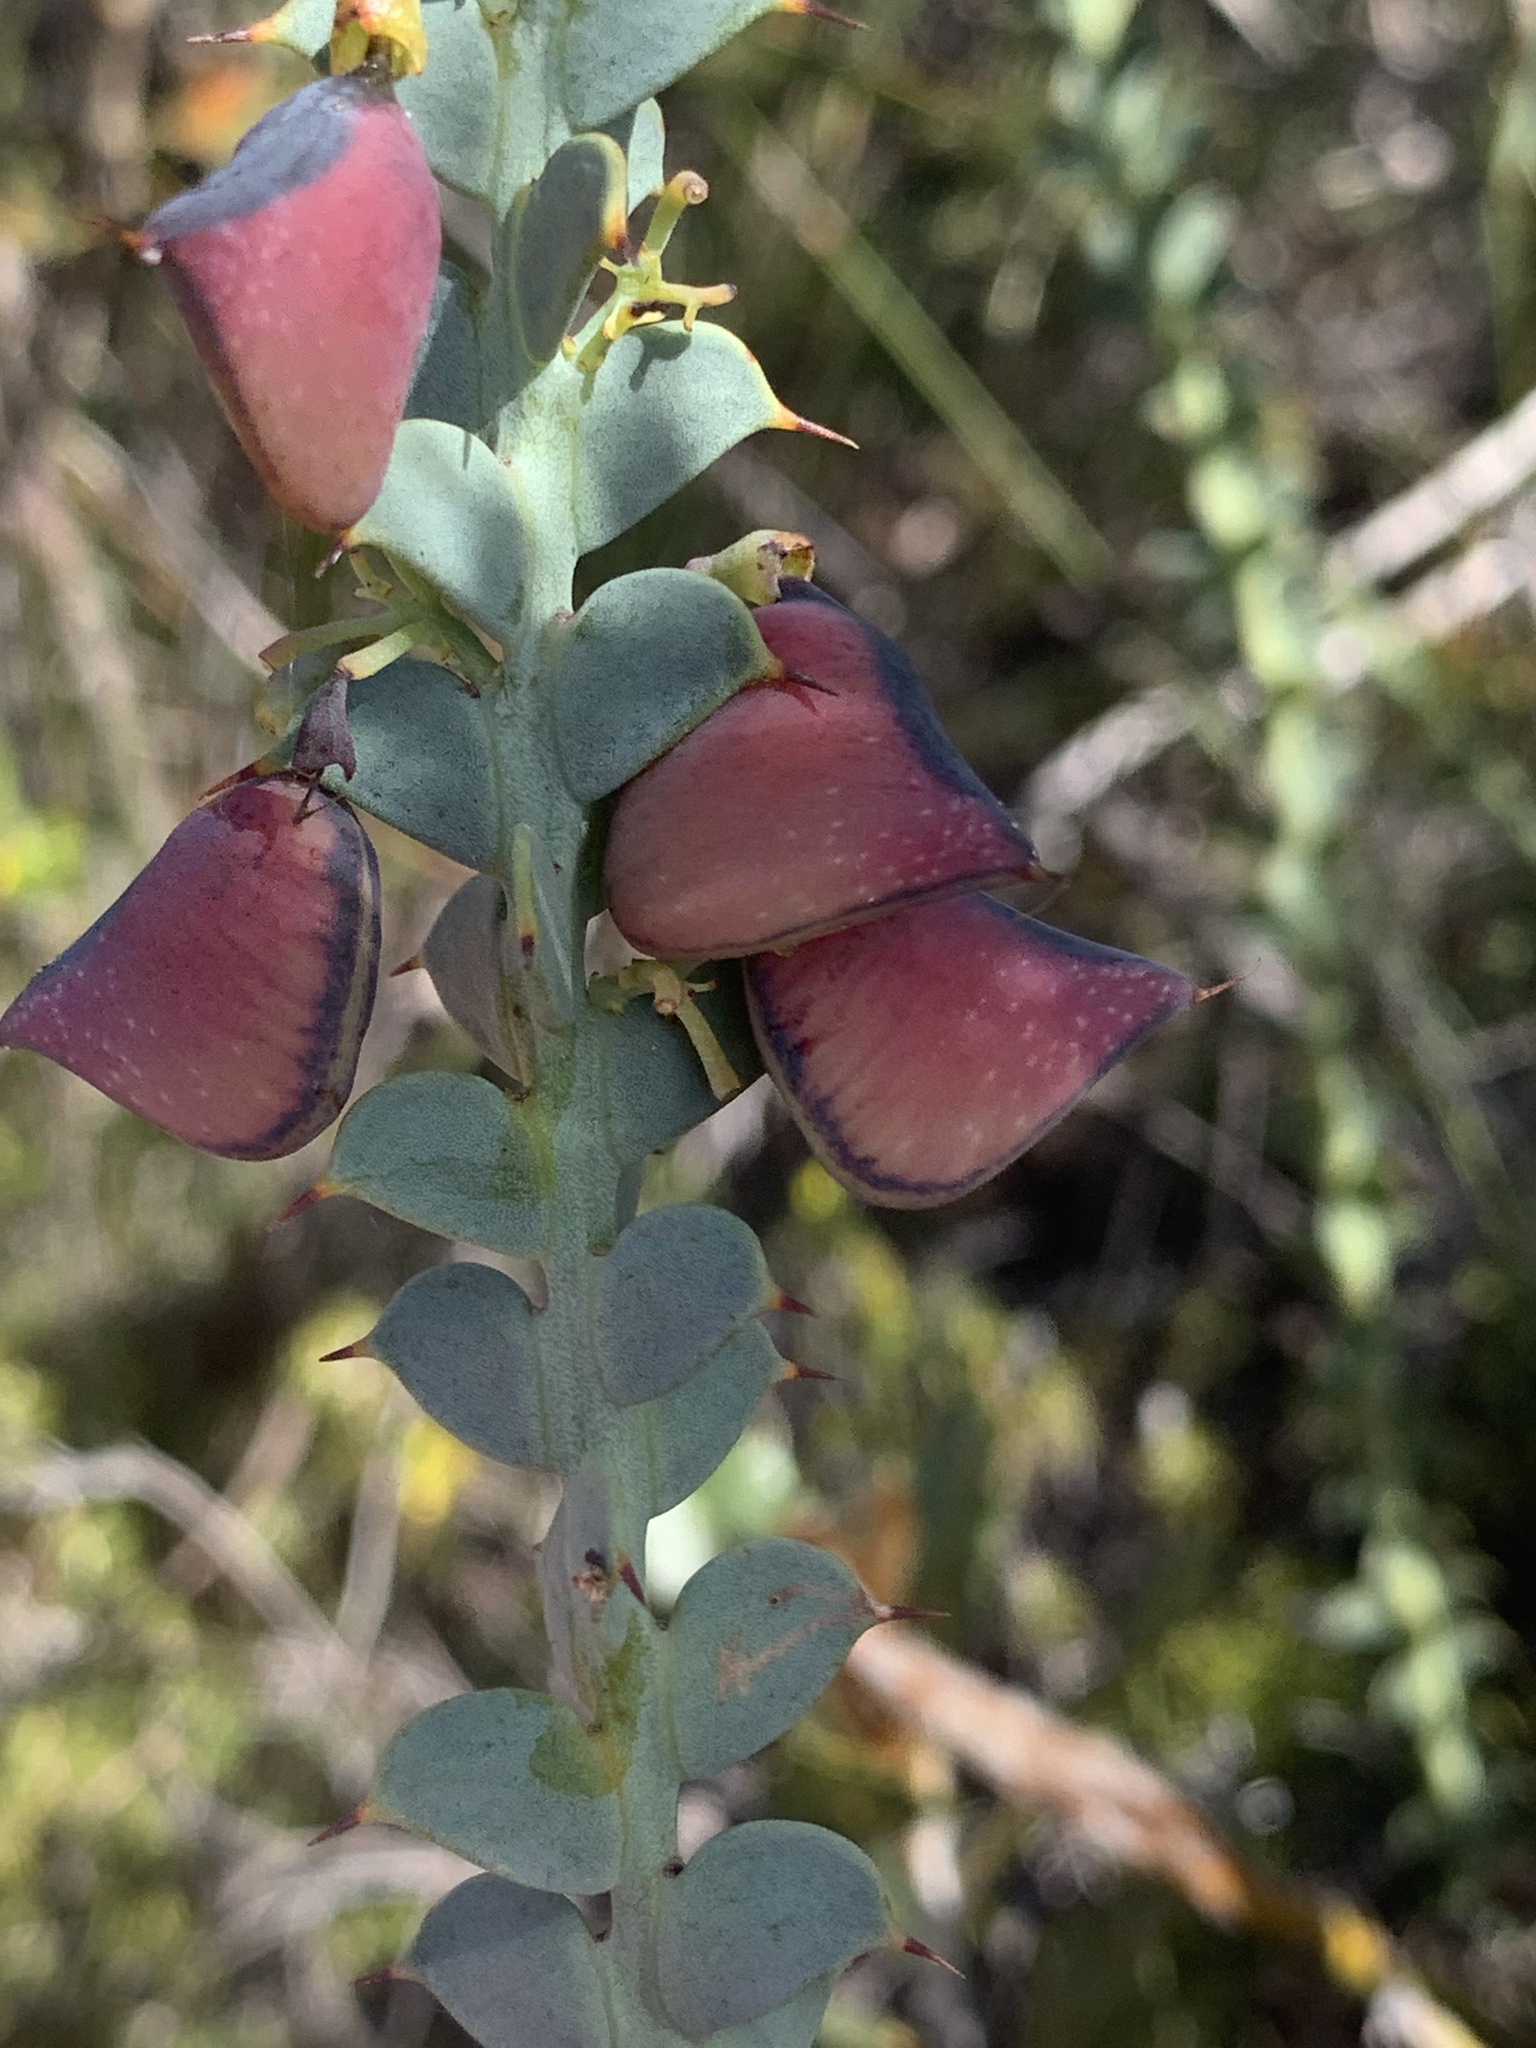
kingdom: Plantae
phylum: Tracheophyta
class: Magnoliopsida
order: Fabales
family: Fabaceae
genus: Daviesia
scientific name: Daviesia striata
